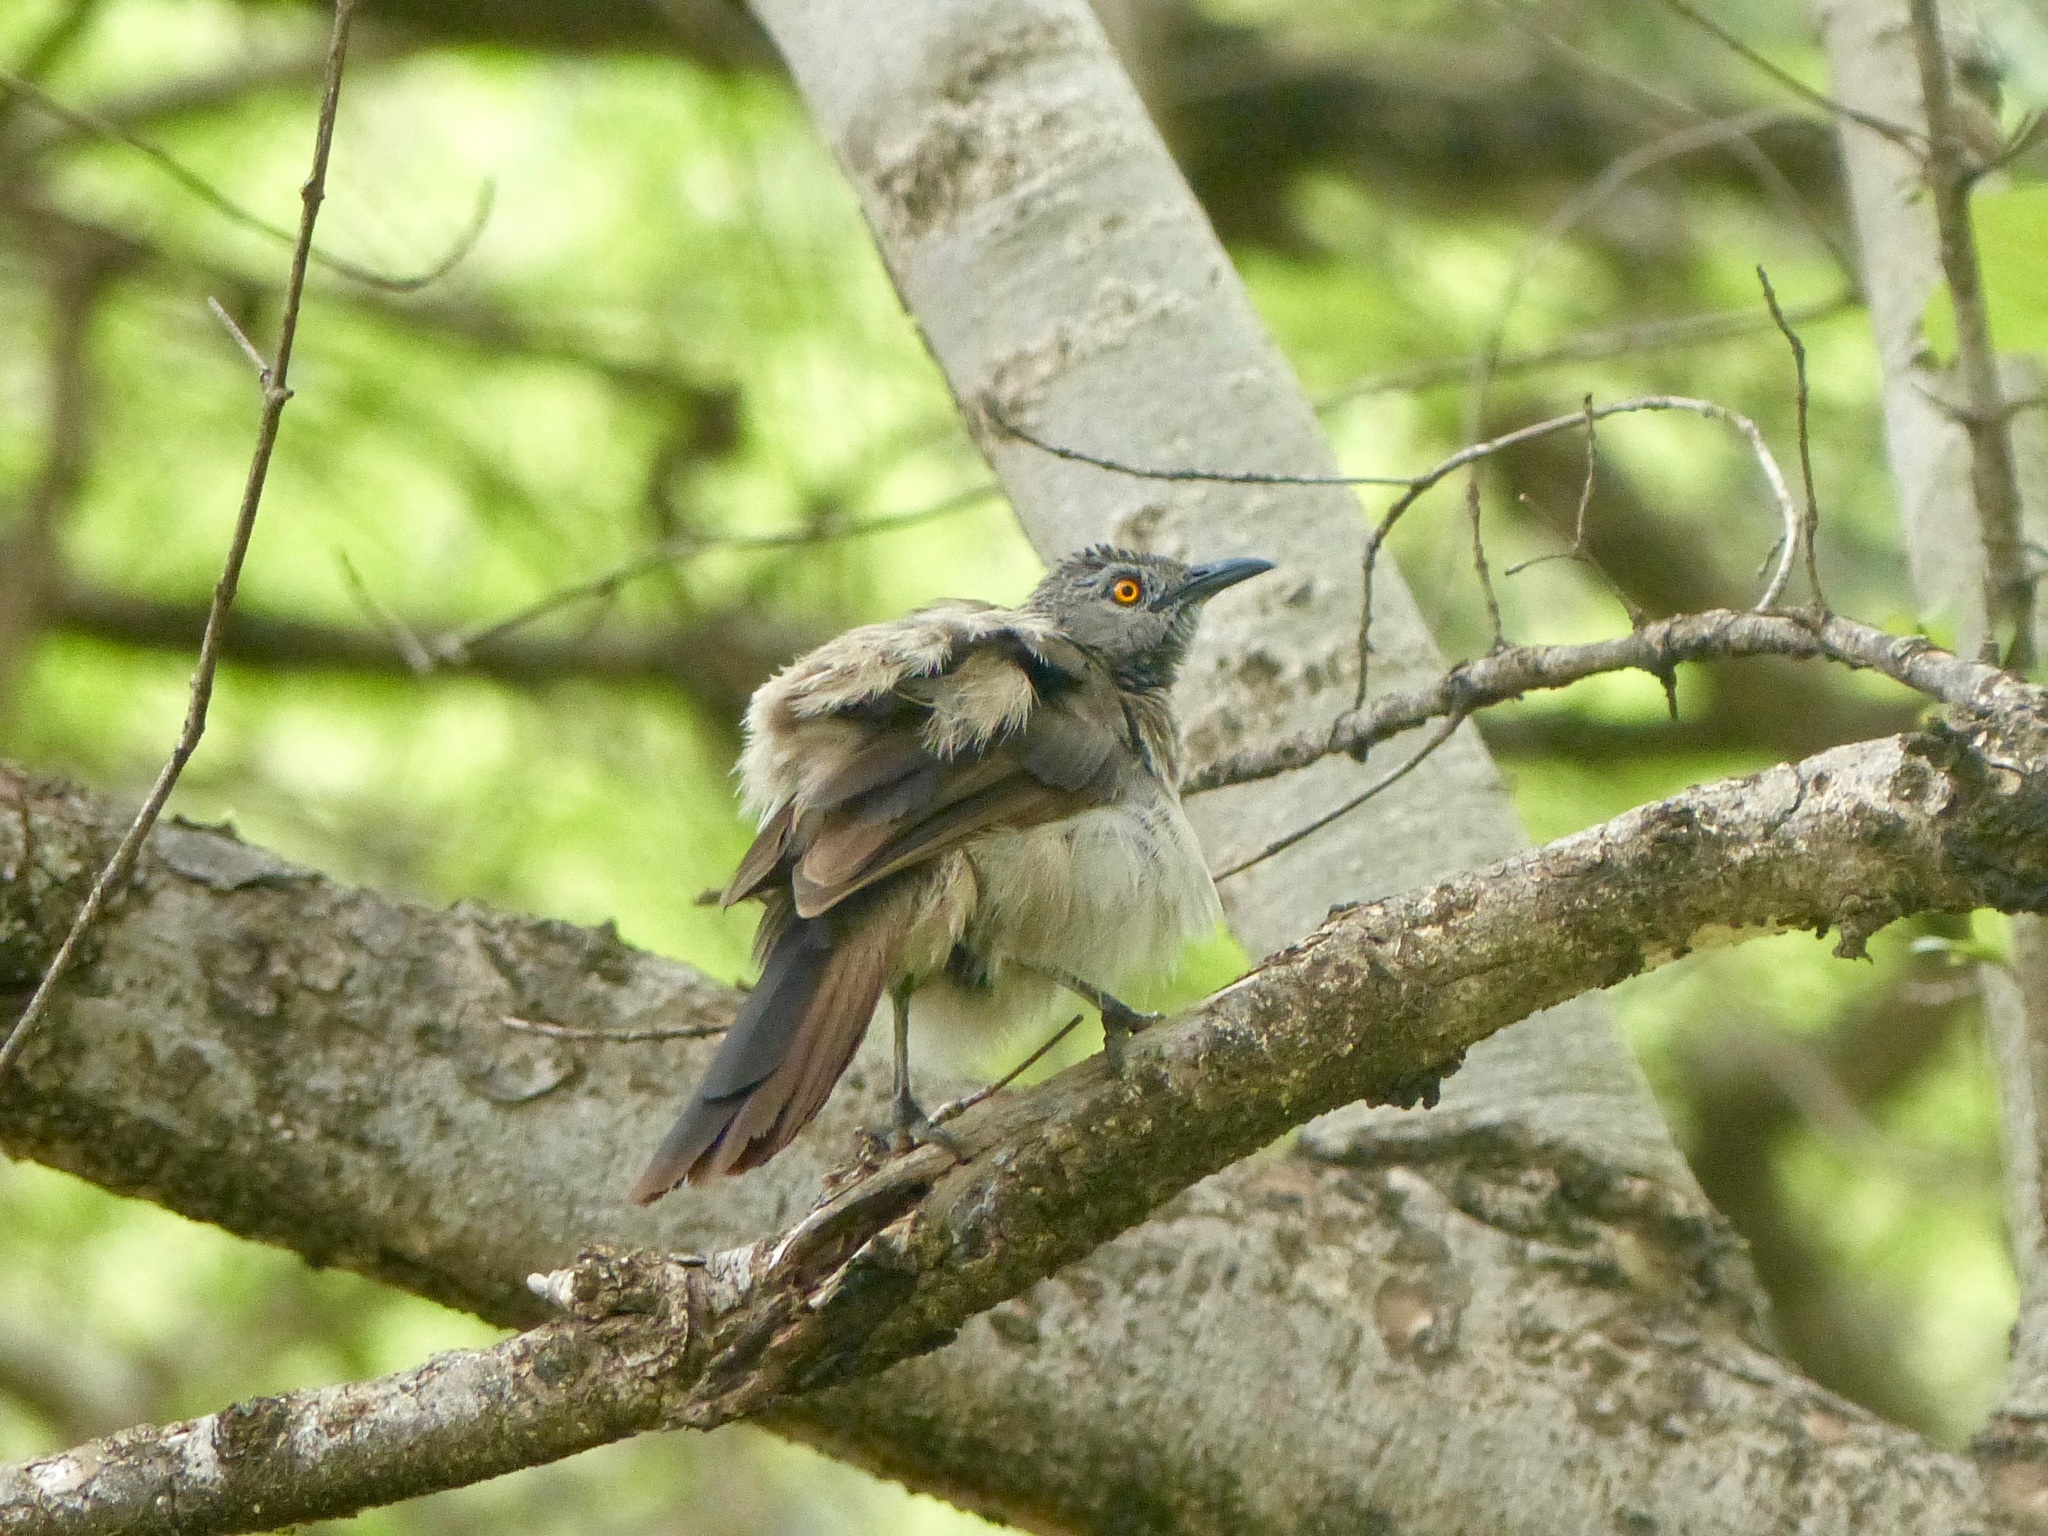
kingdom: Animalia
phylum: Chordata
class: Aves
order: Passeriformes
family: Leiothrichidae
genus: Turdoides
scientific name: Turdoides plebejus
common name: Brown babbler
